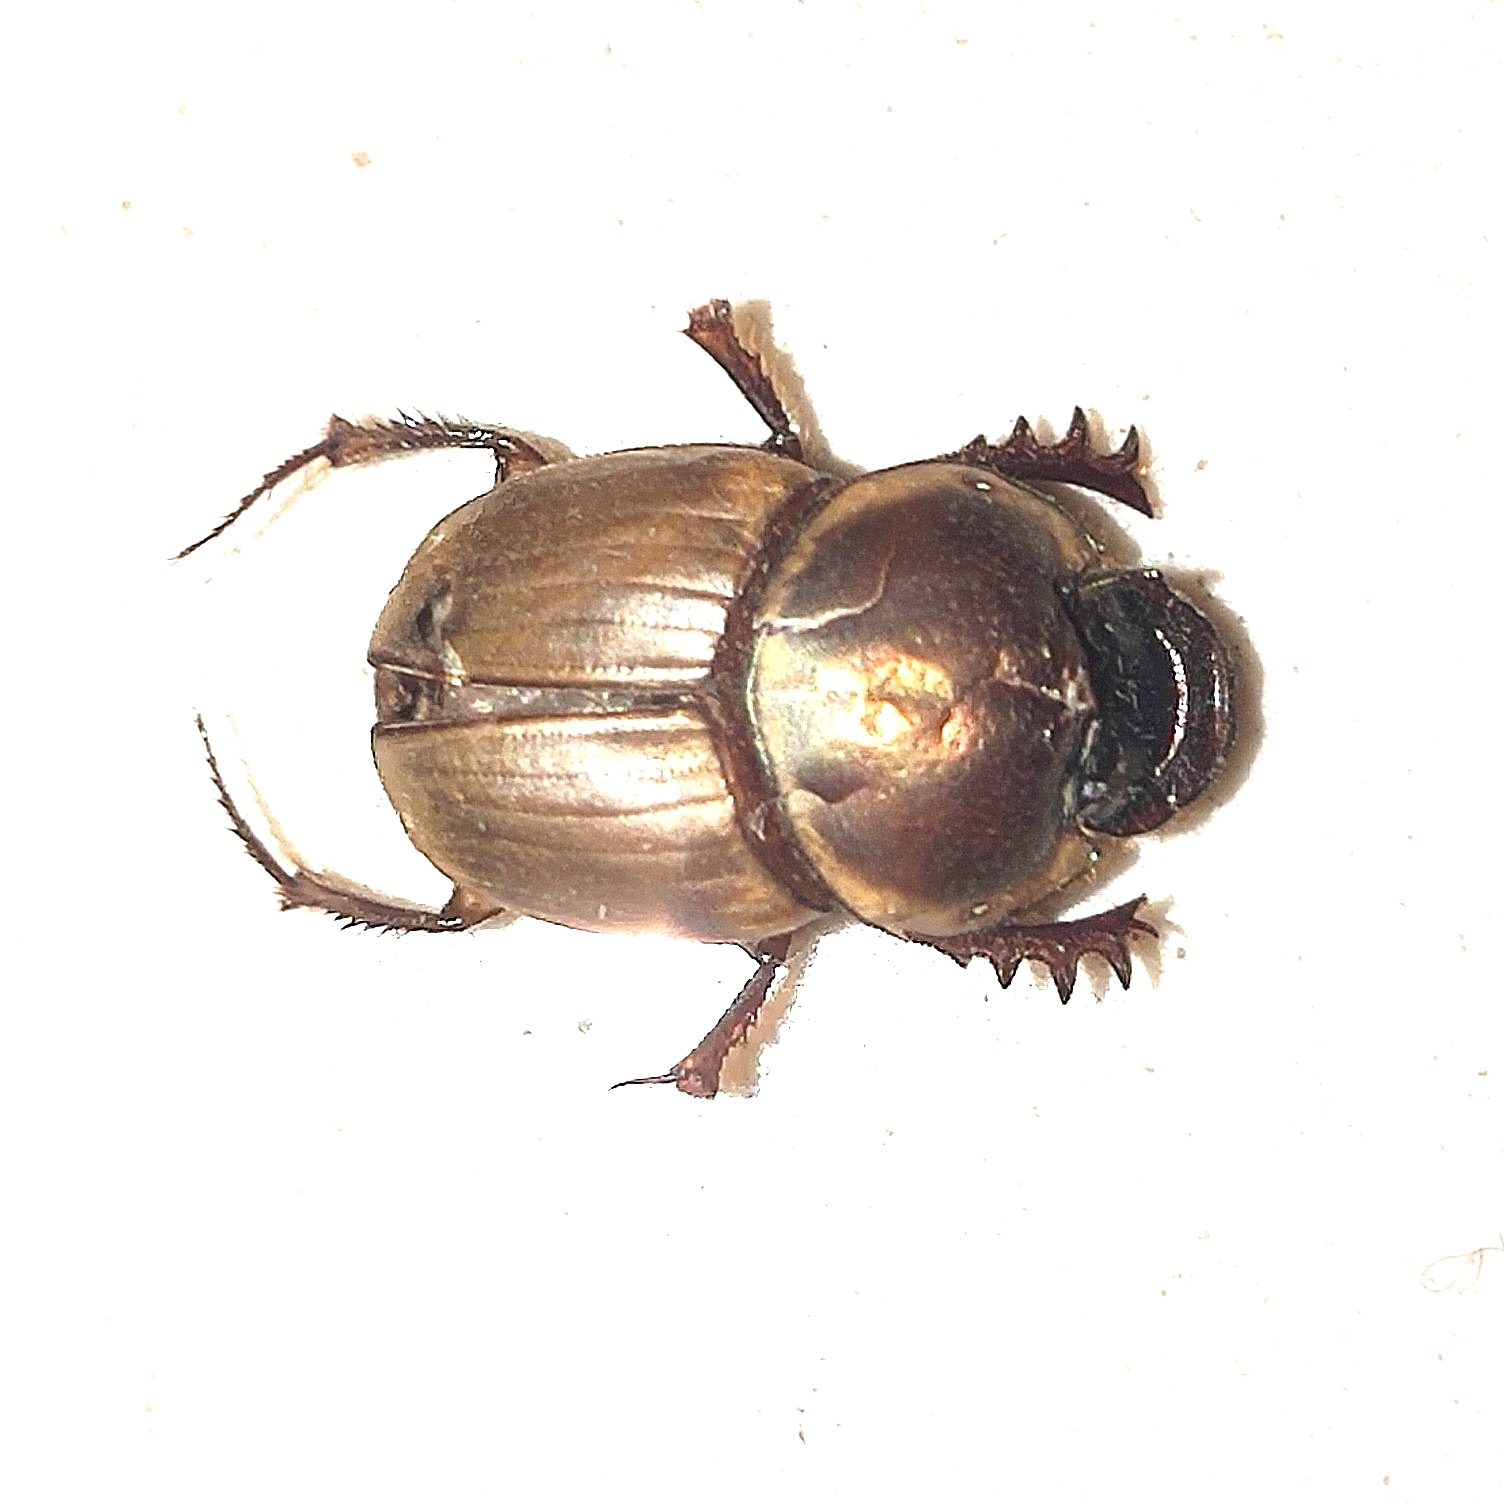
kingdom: Animalia
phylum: Arthropoda
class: Insecta
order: Coleoptera
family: Scarabaeidae
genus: Digitonthophagus
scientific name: Digitonthophagus gazella
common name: Brown dung beetle
